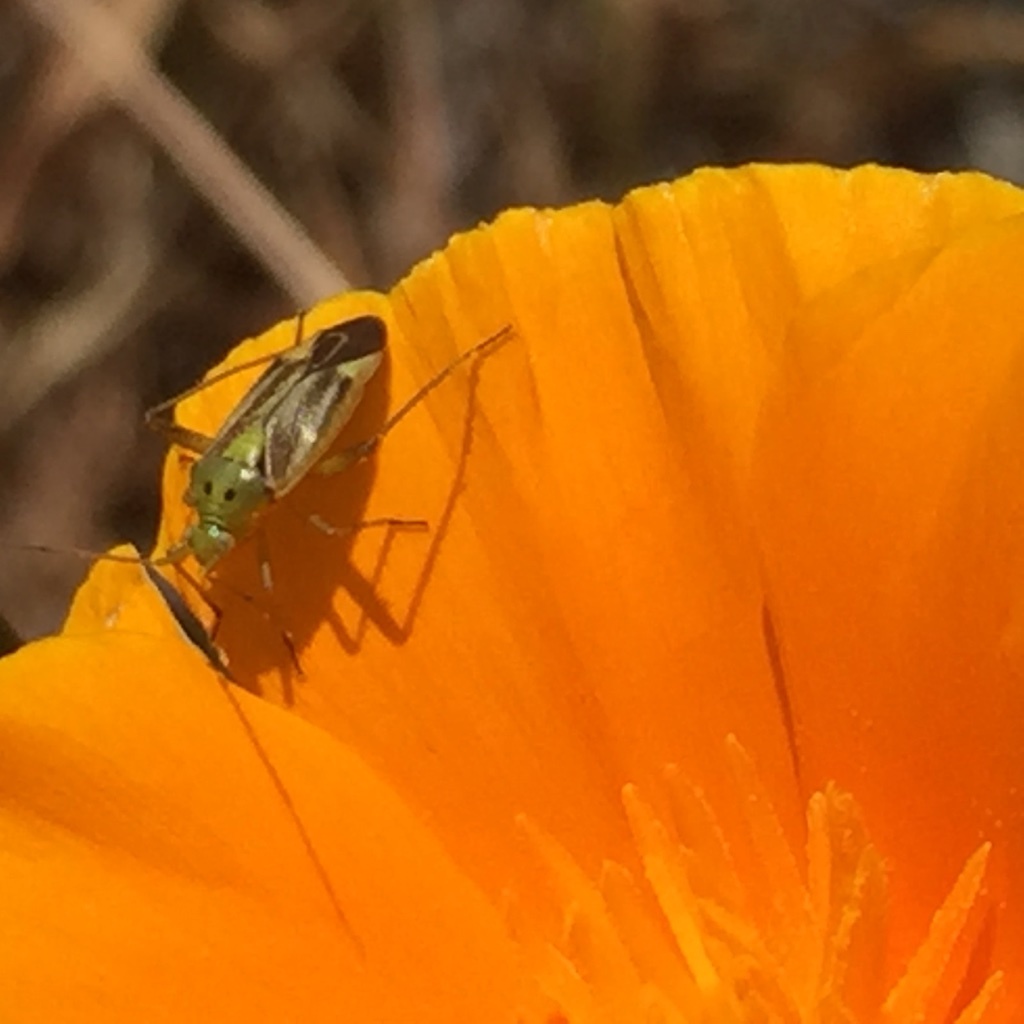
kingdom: Animalia
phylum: Arthropoda
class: Insecta
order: Hemiptera
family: Miridae
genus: Closterotomus
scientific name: Closterotomus norvegicus
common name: Plant bug
